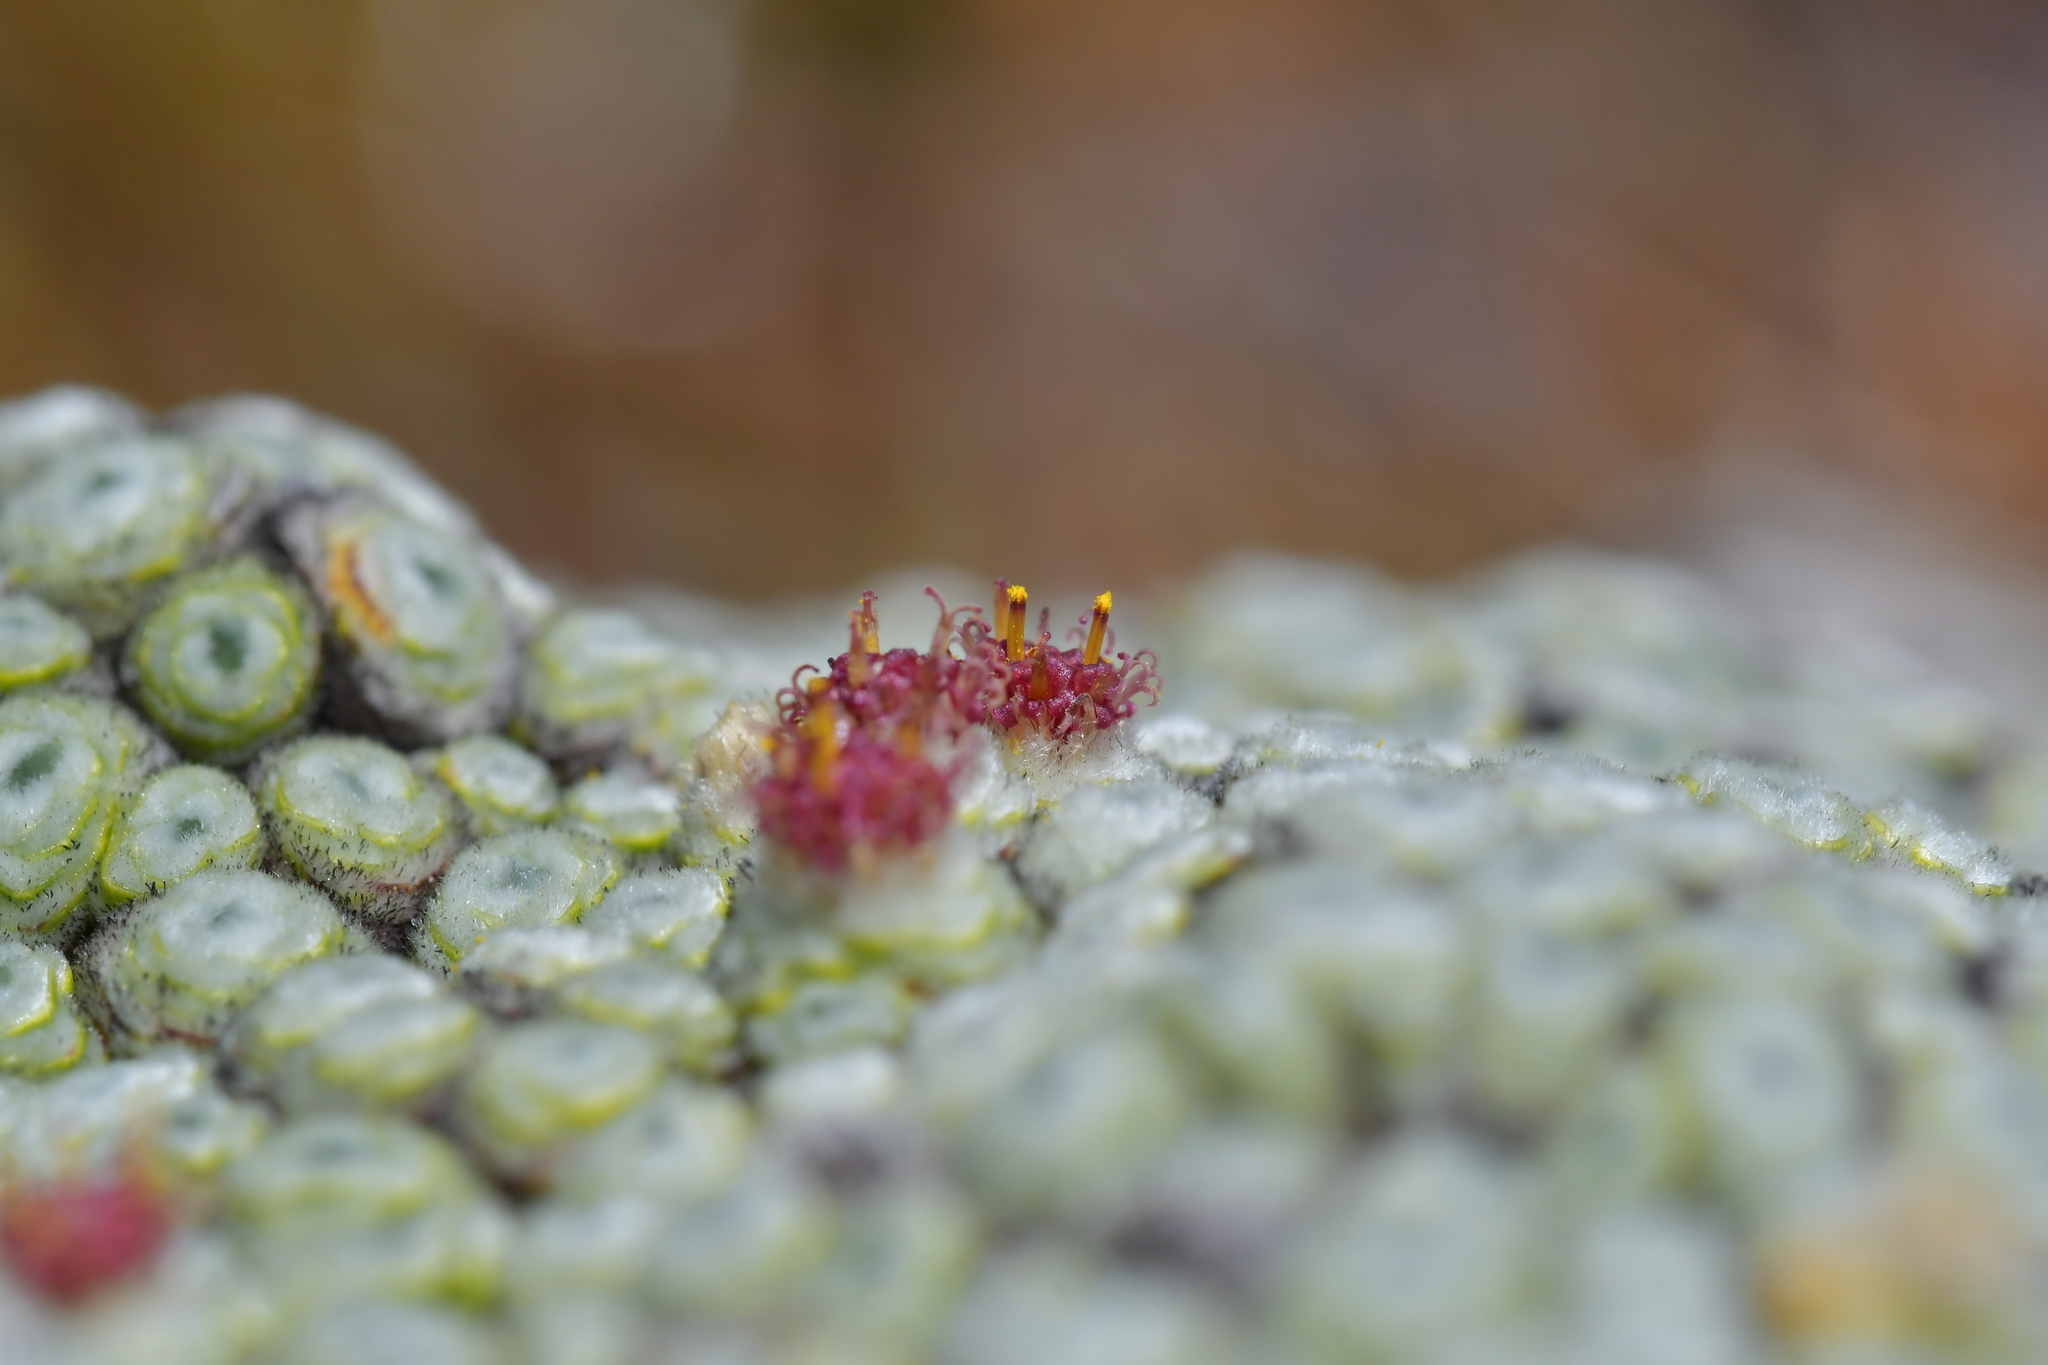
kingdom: Plantae
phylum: Tracheophyta
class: Magnoliopsida
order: Asterales
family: Asteraceae
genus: Raoulia
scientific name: Raoulia buchananii
